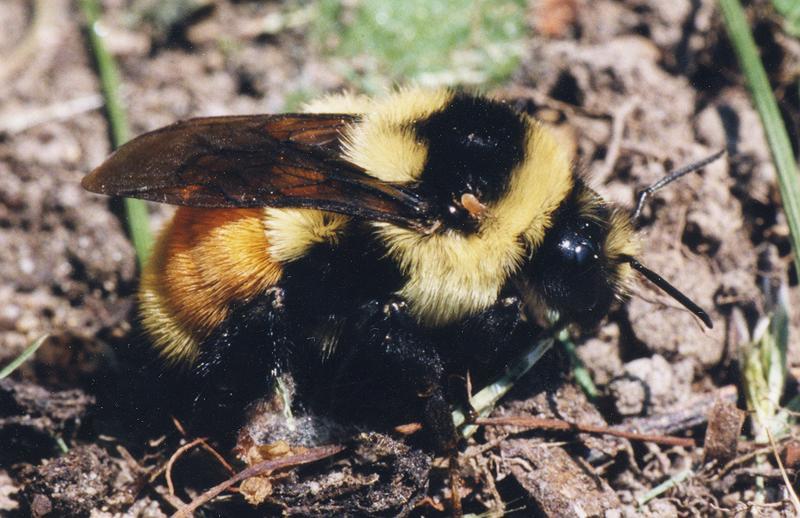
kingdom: Animalia
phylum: Arthropoda
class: Insecta
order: Hymenoptera
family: Apidae
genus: Bombus
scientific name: Bombus ternarius
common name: Tri-colored bumble bee
